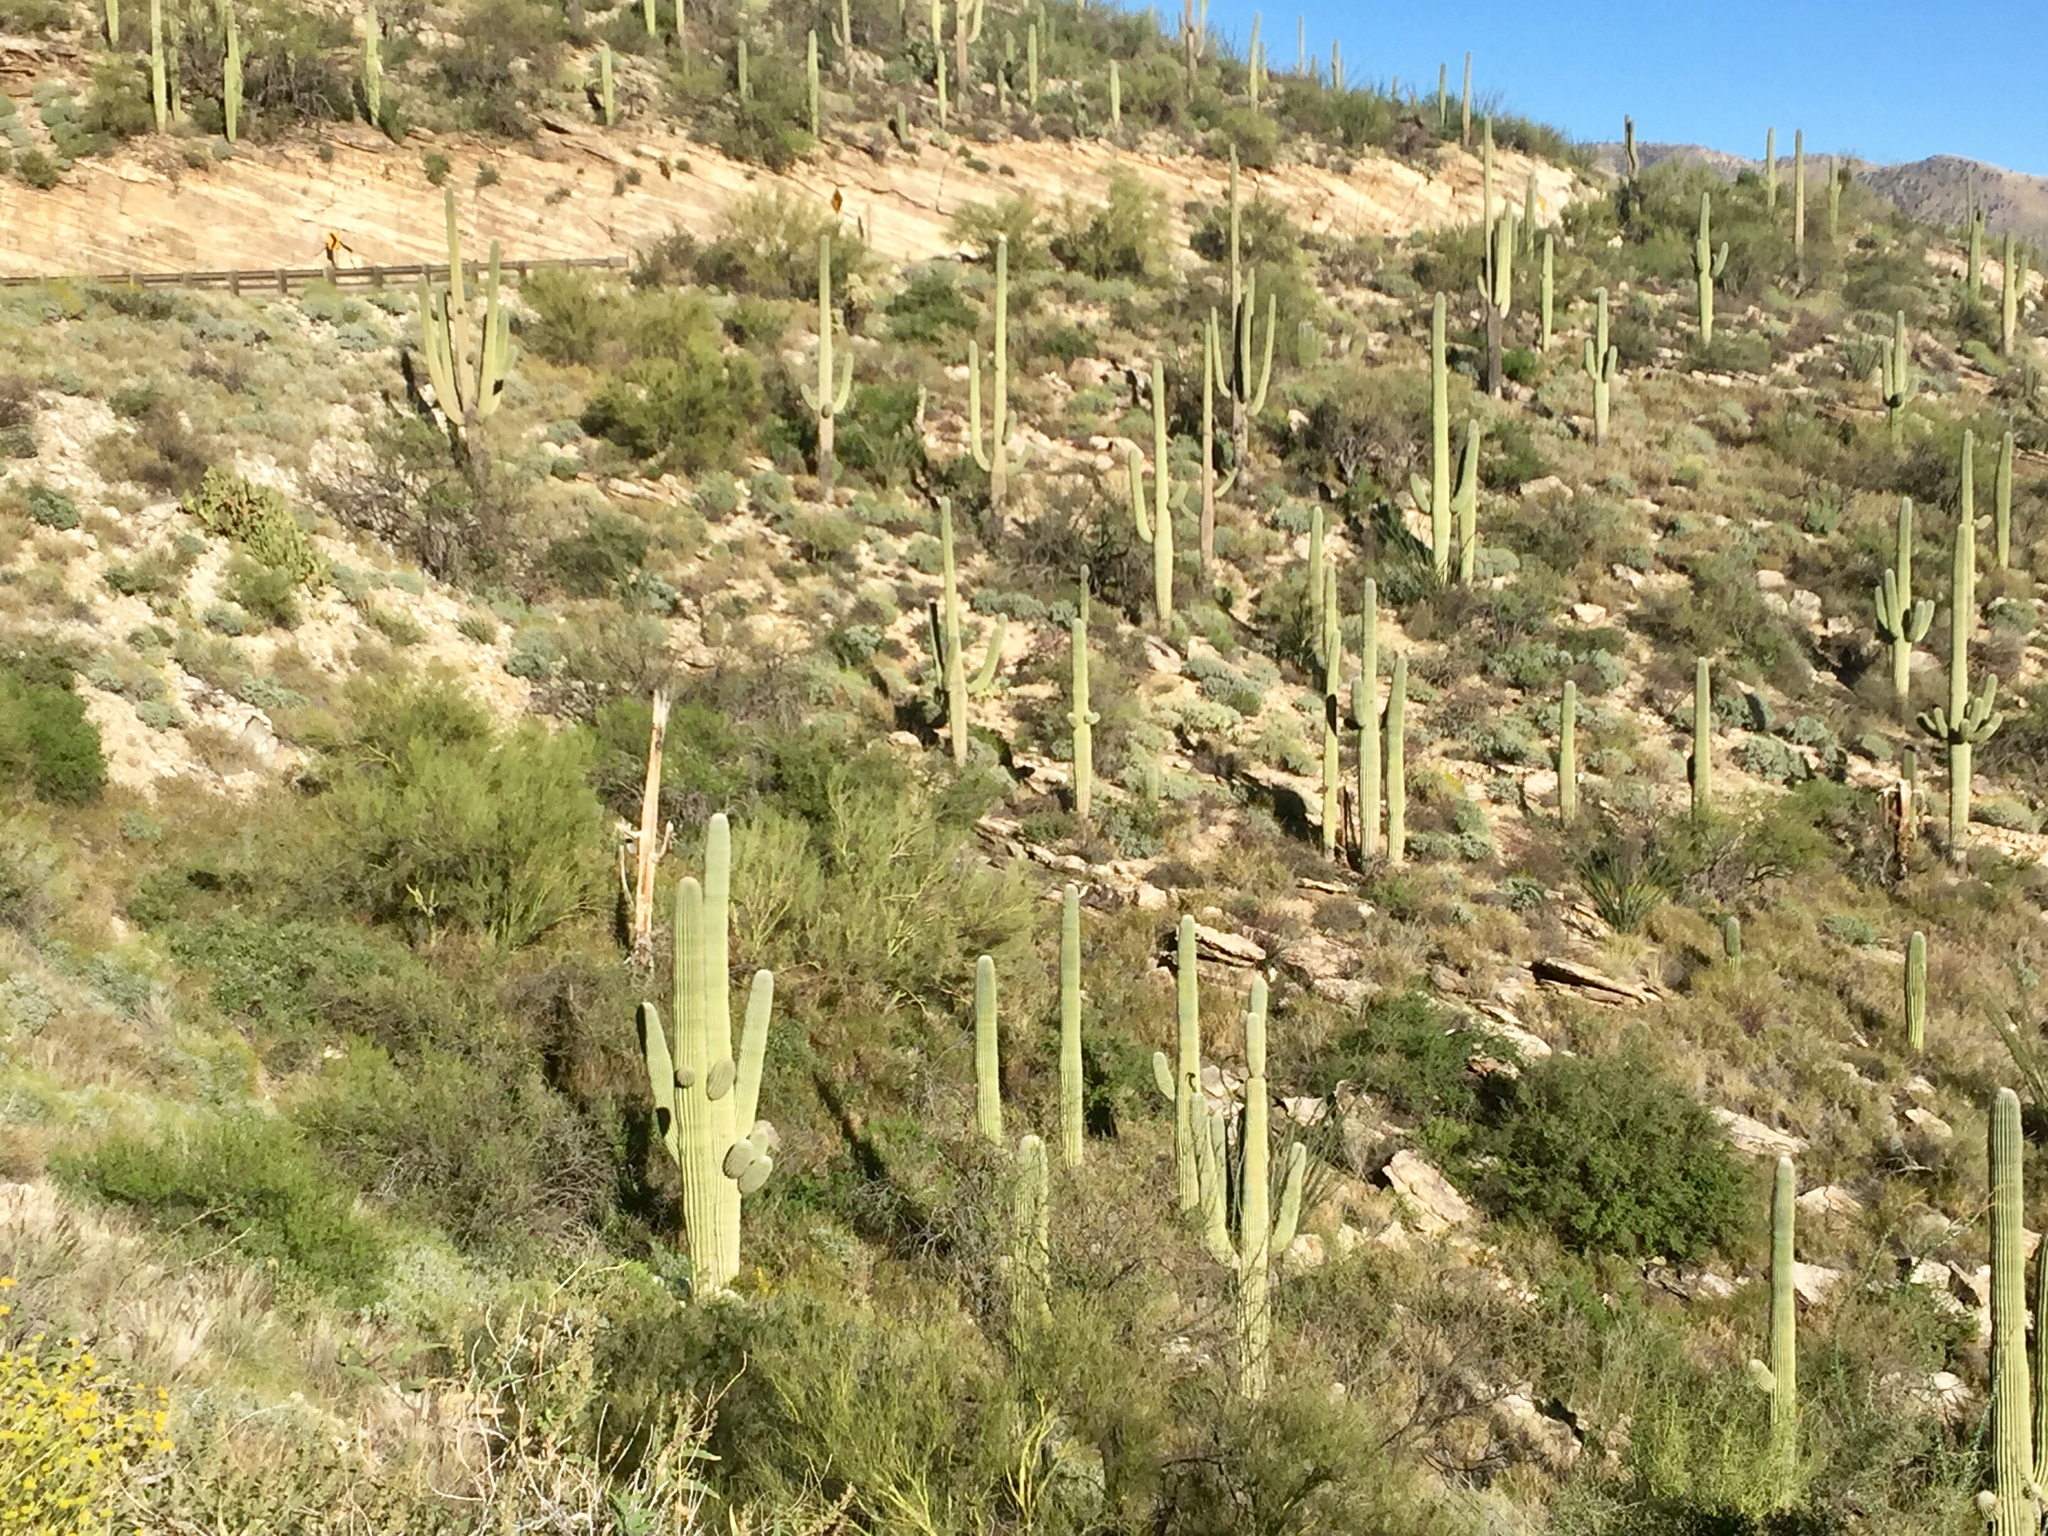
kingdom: Plantae
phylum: Tracheophyta
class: Magnoliopsida
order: Caryophyllales
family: Cactaceae
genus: Carnegiea
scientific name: Carnegiea gigantea
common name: Saguaro
